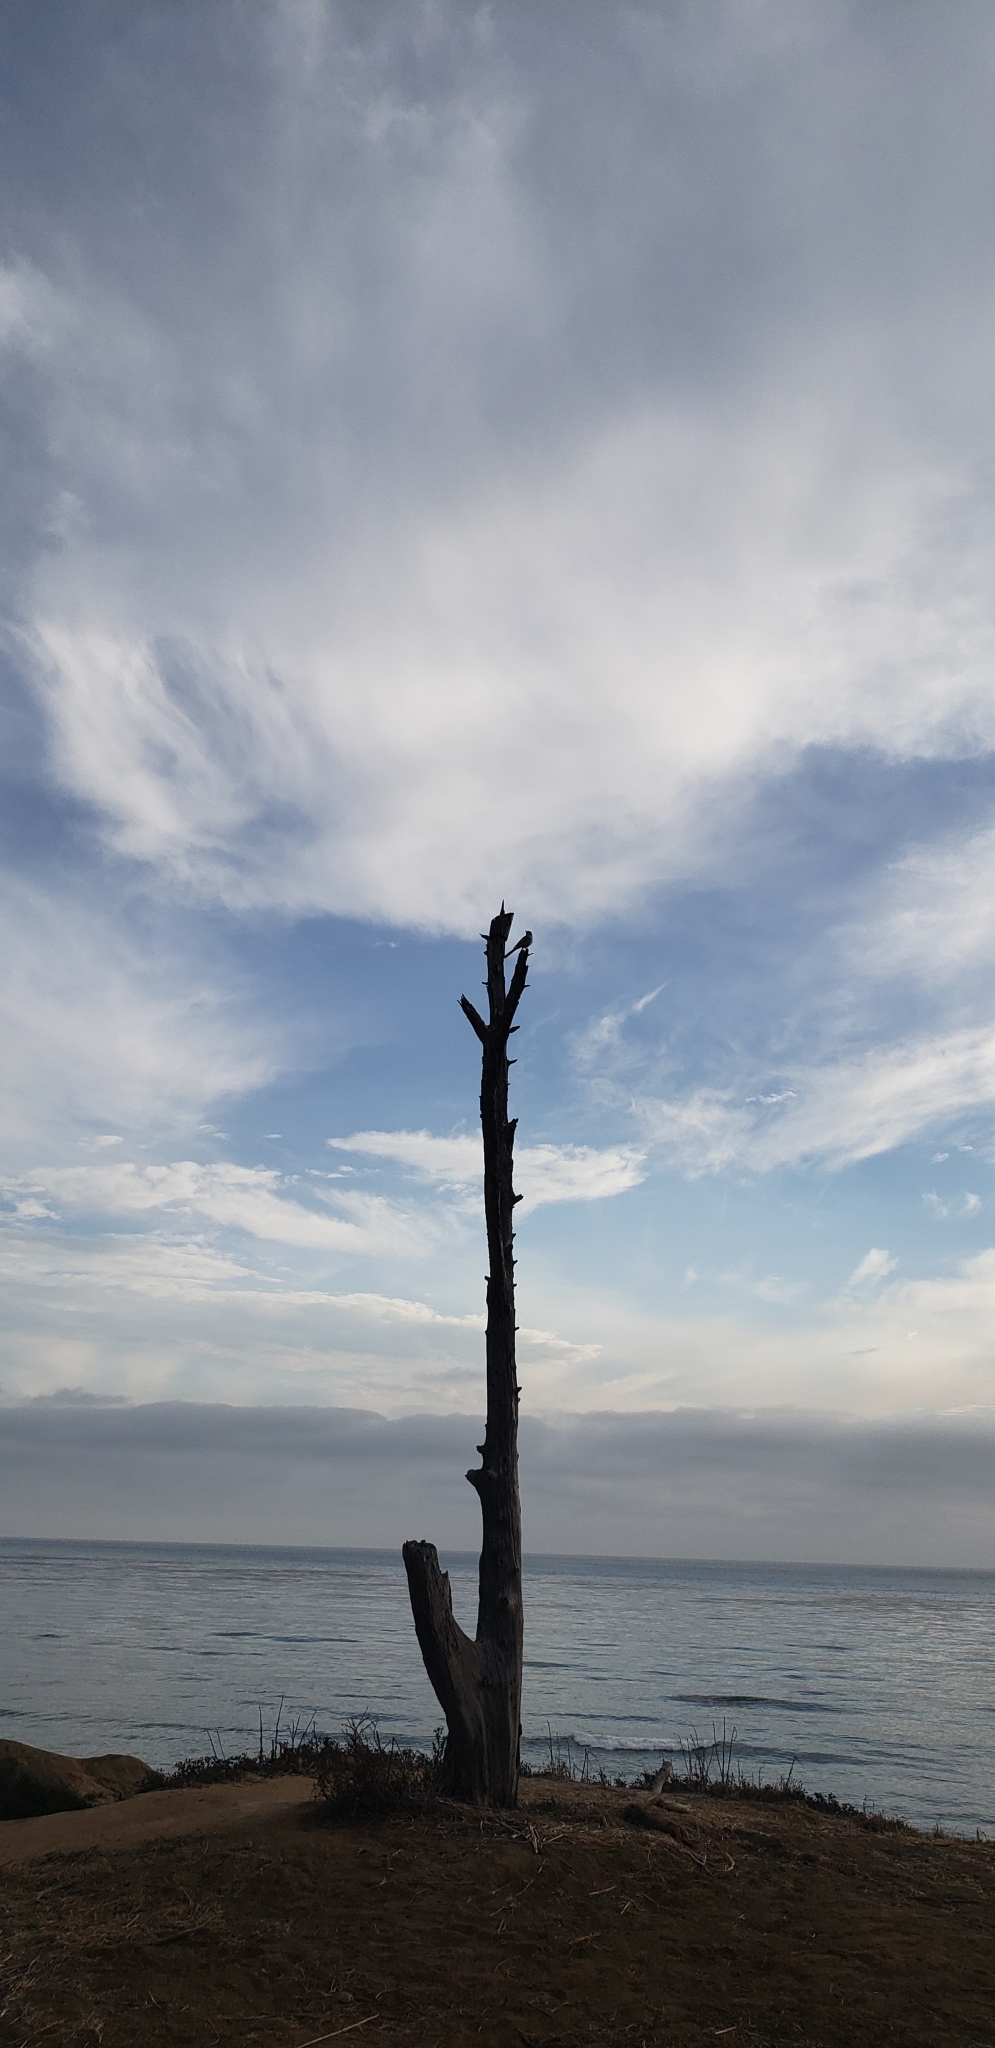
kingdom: Animalia
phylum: Chordata
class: Aves
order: Passeriformes
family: Mimidae
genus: Mimus
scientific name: Mimus polyglottos
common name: Northern mockingbird
